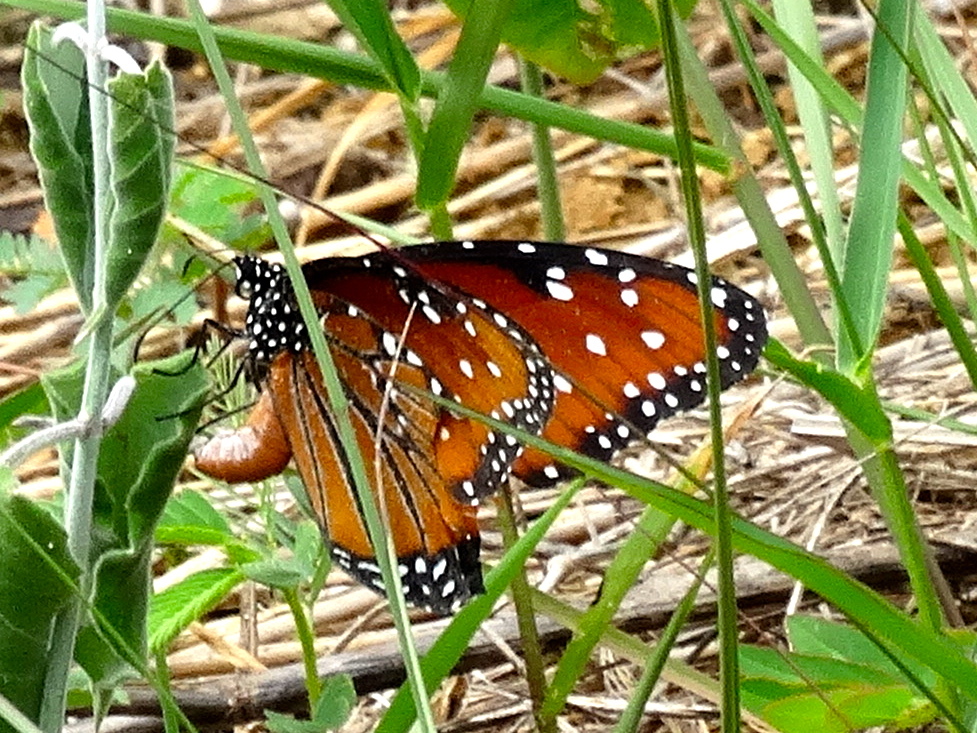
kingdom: Animalia
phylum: Arthropoda
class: Insecta
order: Lepidoptera
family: Nymphalidae
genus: Danaus
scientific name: Danaus gilippus
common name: Queen
